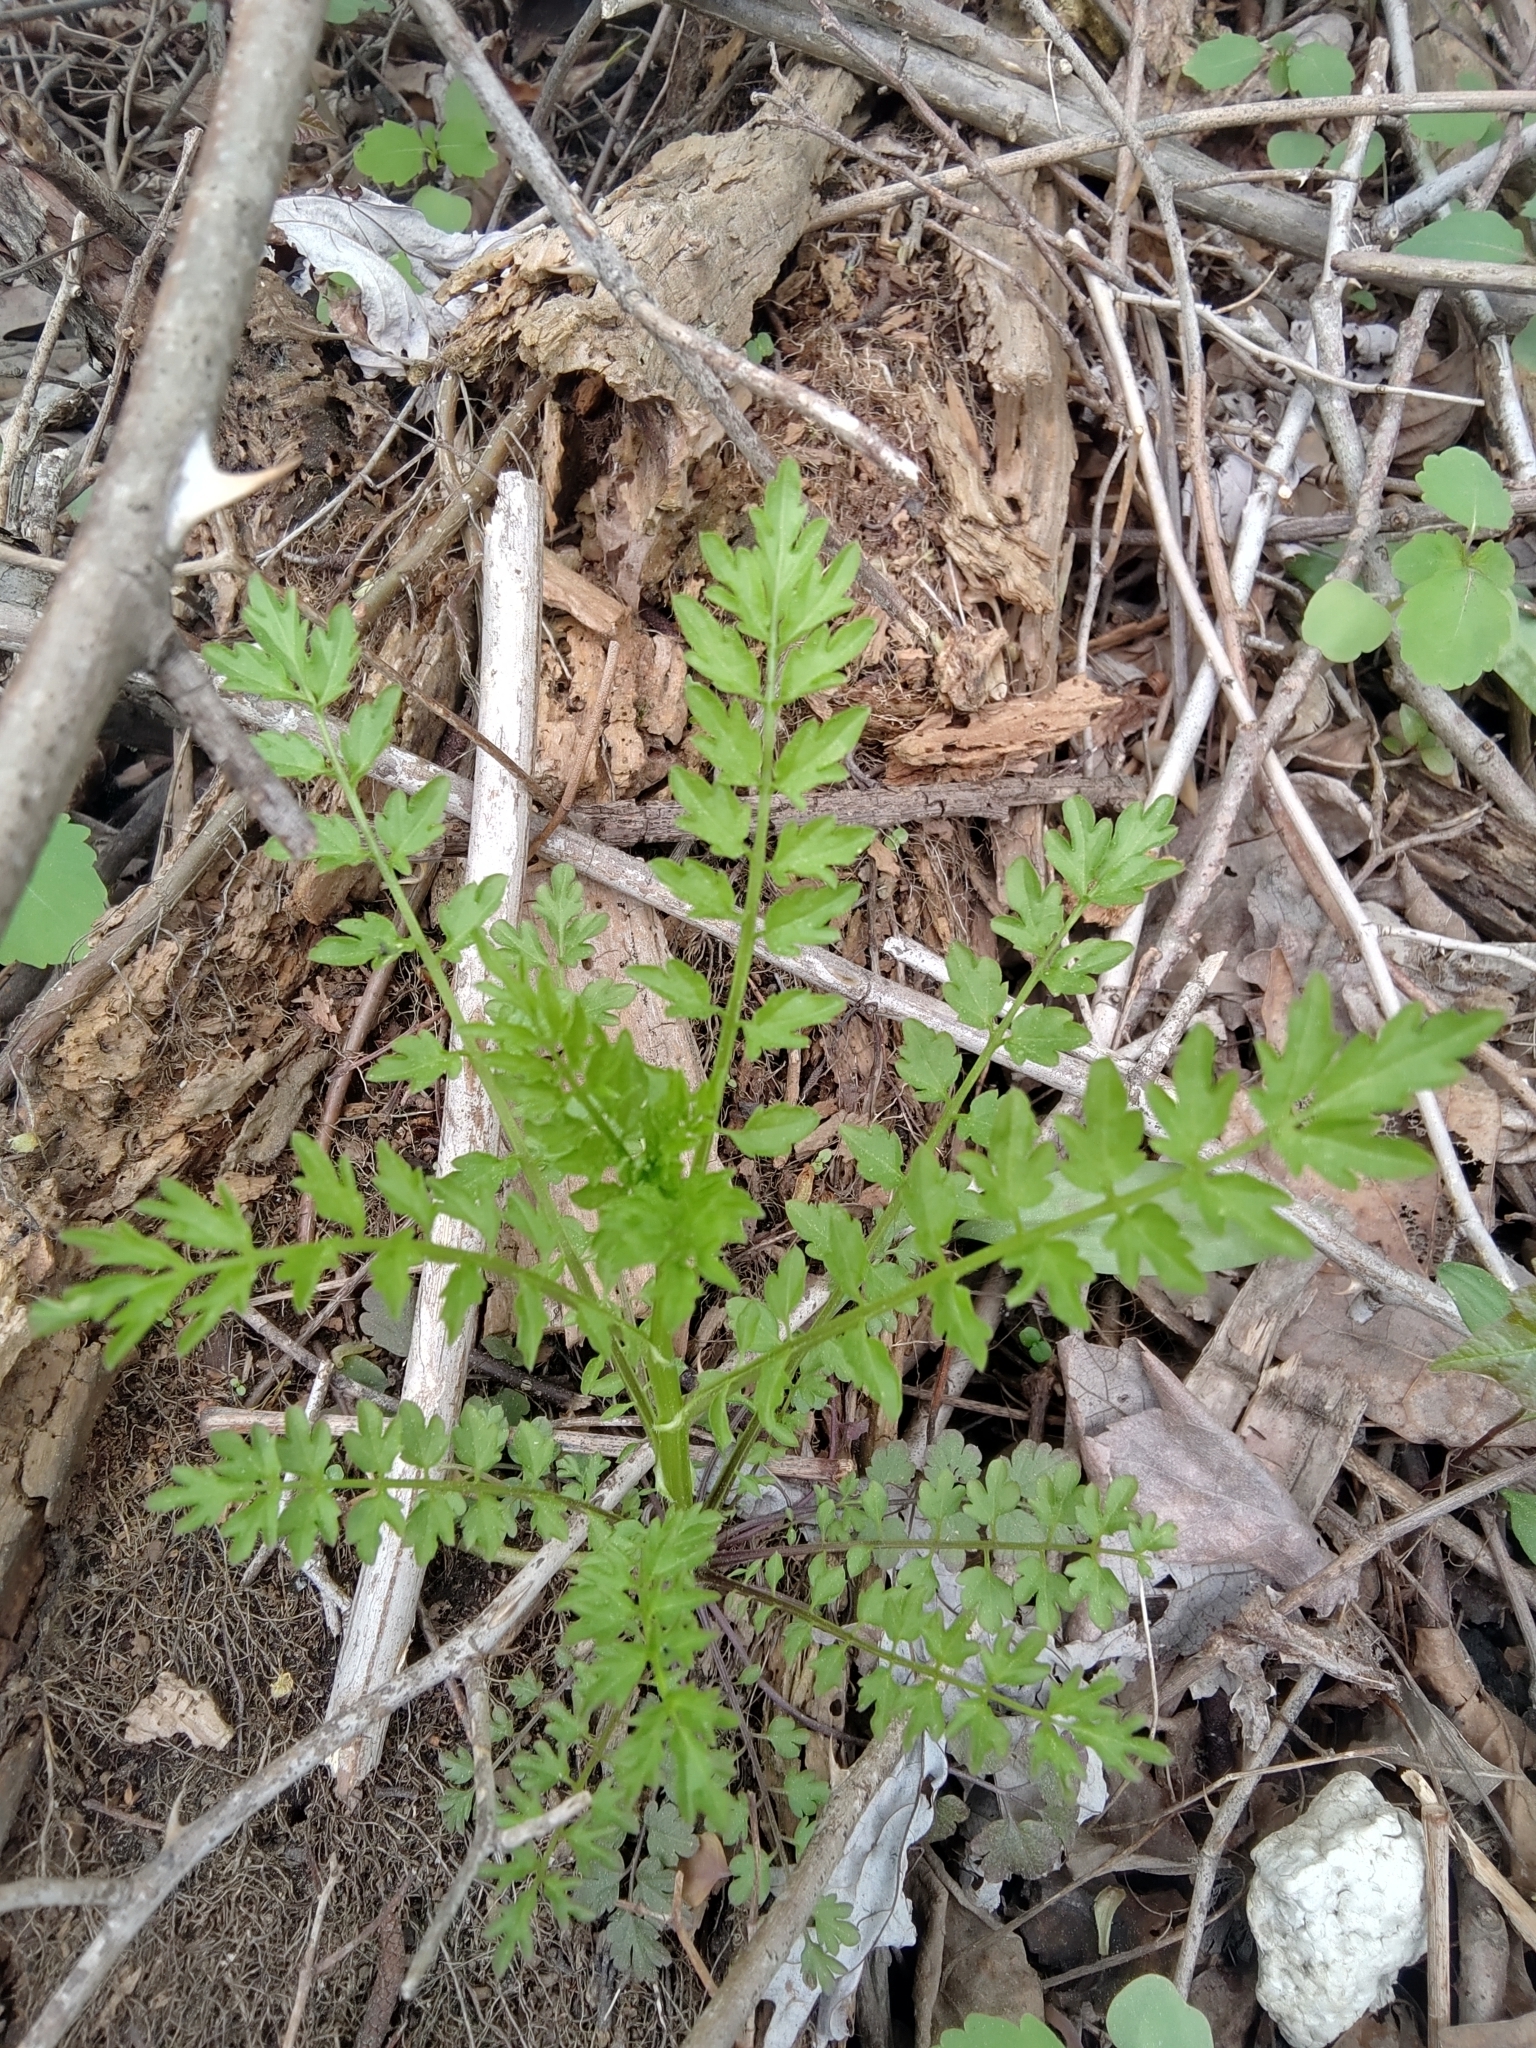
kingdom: Plantae
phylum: Tracheophyta
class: Magnoliopsida
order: Brassicales
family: Brassicaceae
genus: Cardamine
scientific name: Cardamine impatiens
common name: Narrow-leaved bitter-cress
